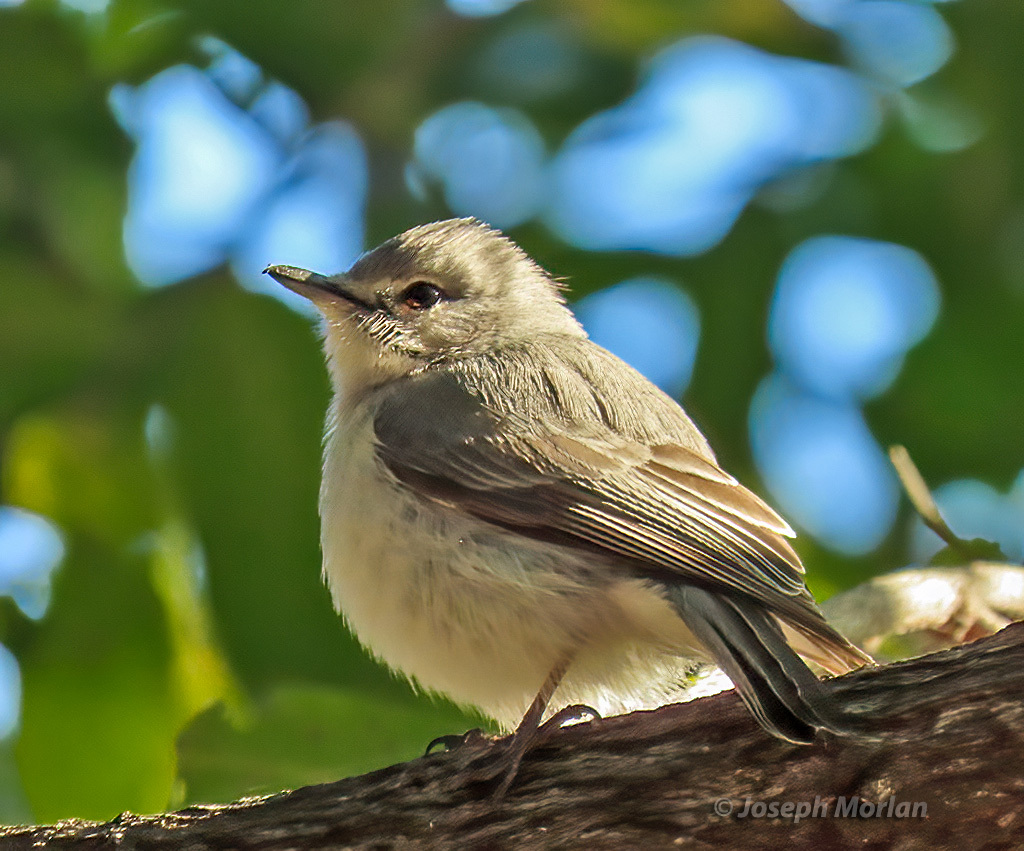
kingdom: Animalia
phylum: Chordata
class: Aves
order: Passeriformes
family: Muscicapidae
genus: Muscicapa
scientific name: Muscicapa caerulescens
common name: Ashy flycatcher
